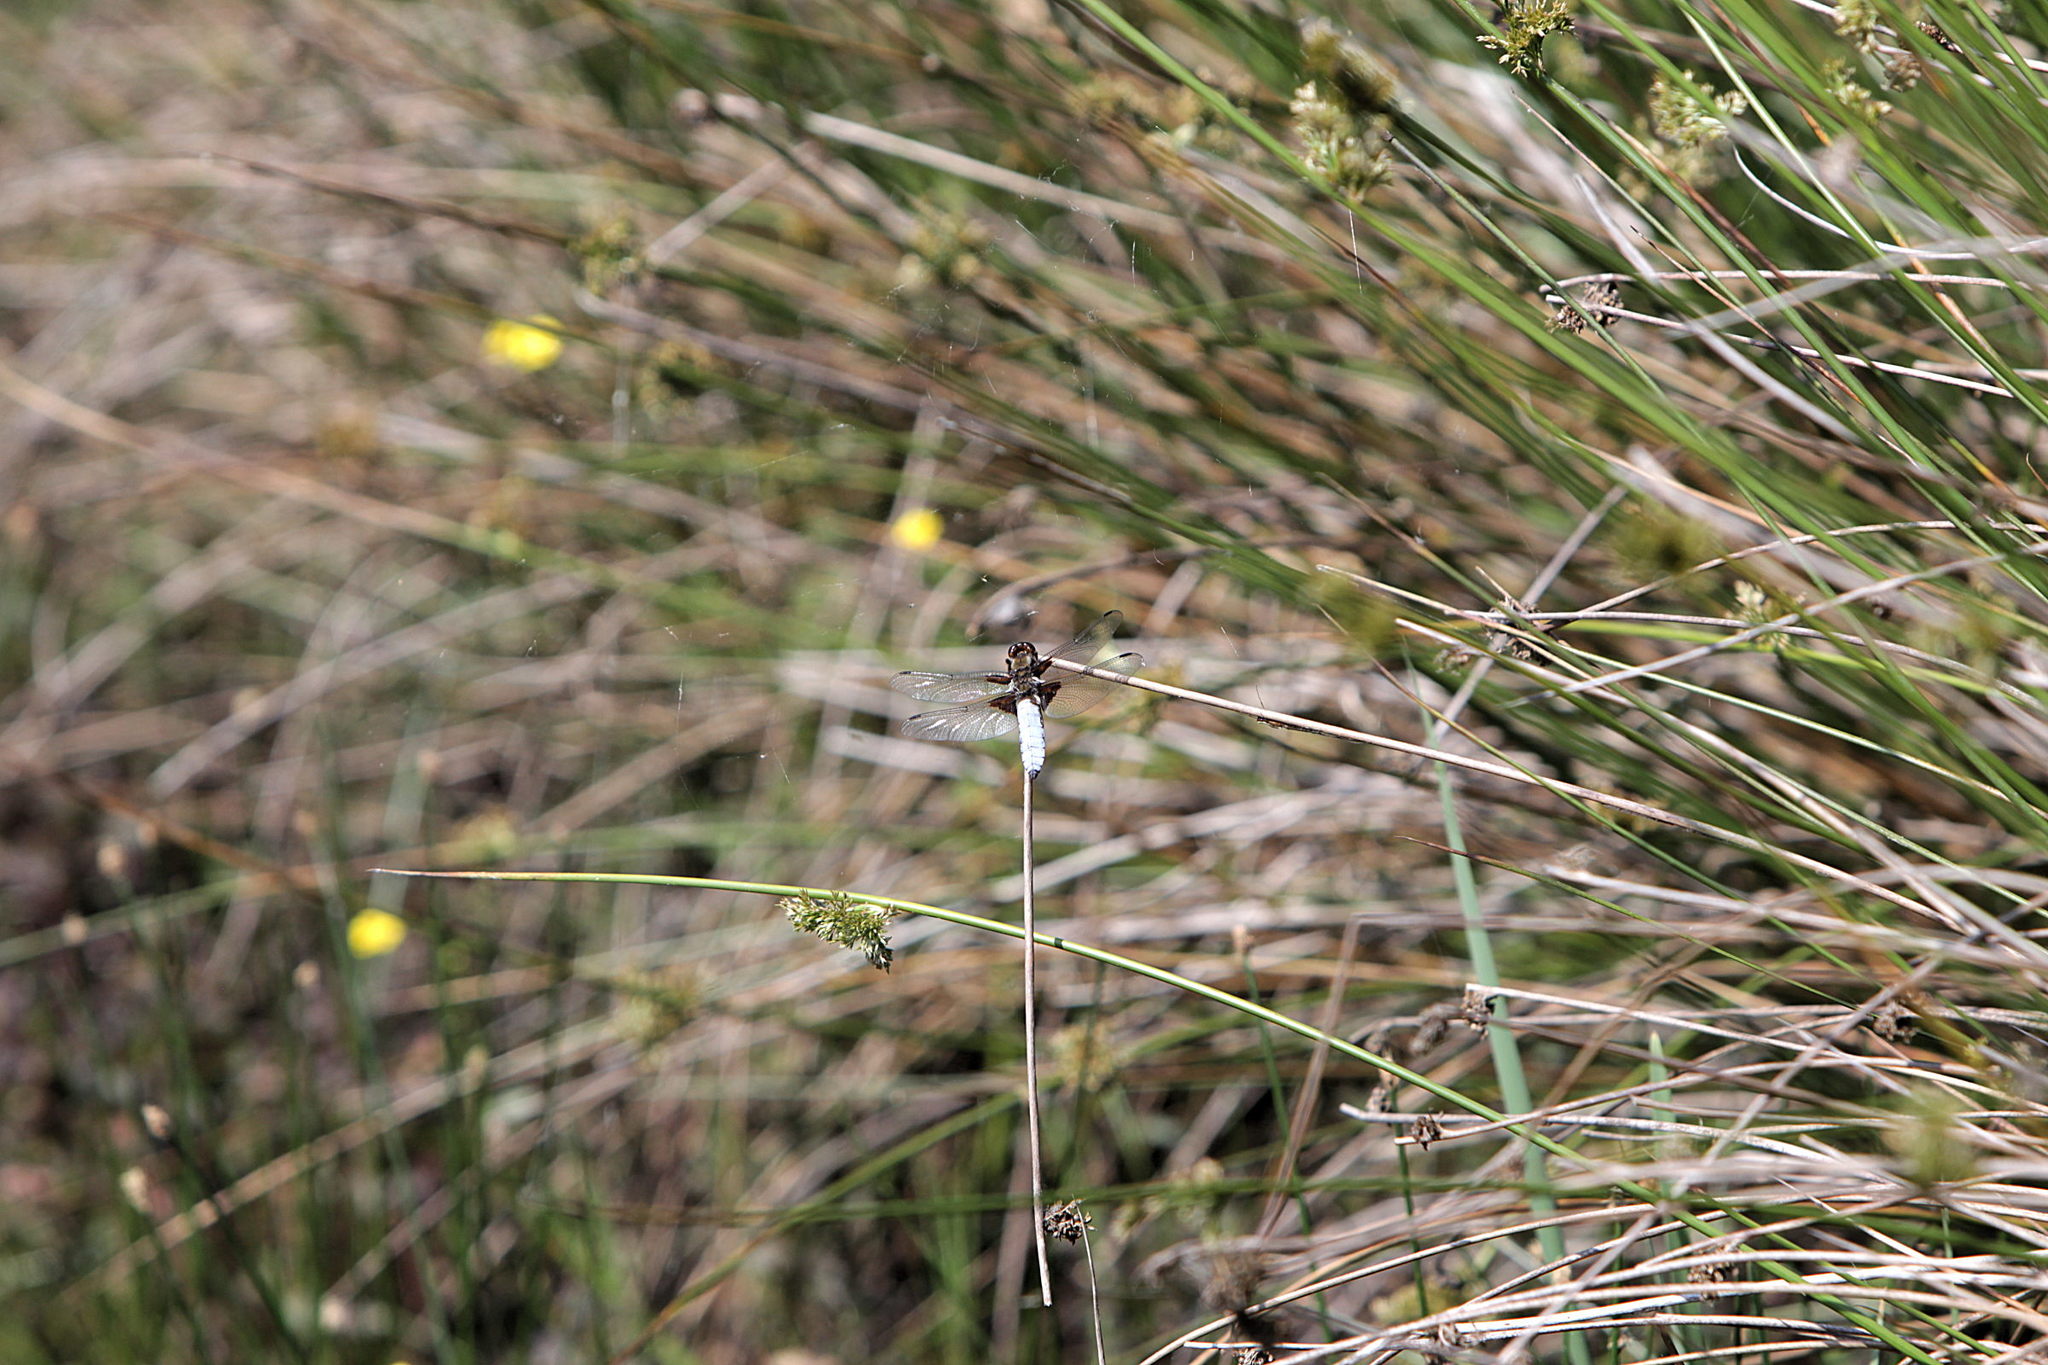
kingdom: Animalia
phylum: Arthropoda
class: Insecta
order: Odonata
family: Libellulidae
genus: Libellula
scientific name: Libellula depressa
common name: Broad-bodied chaser
